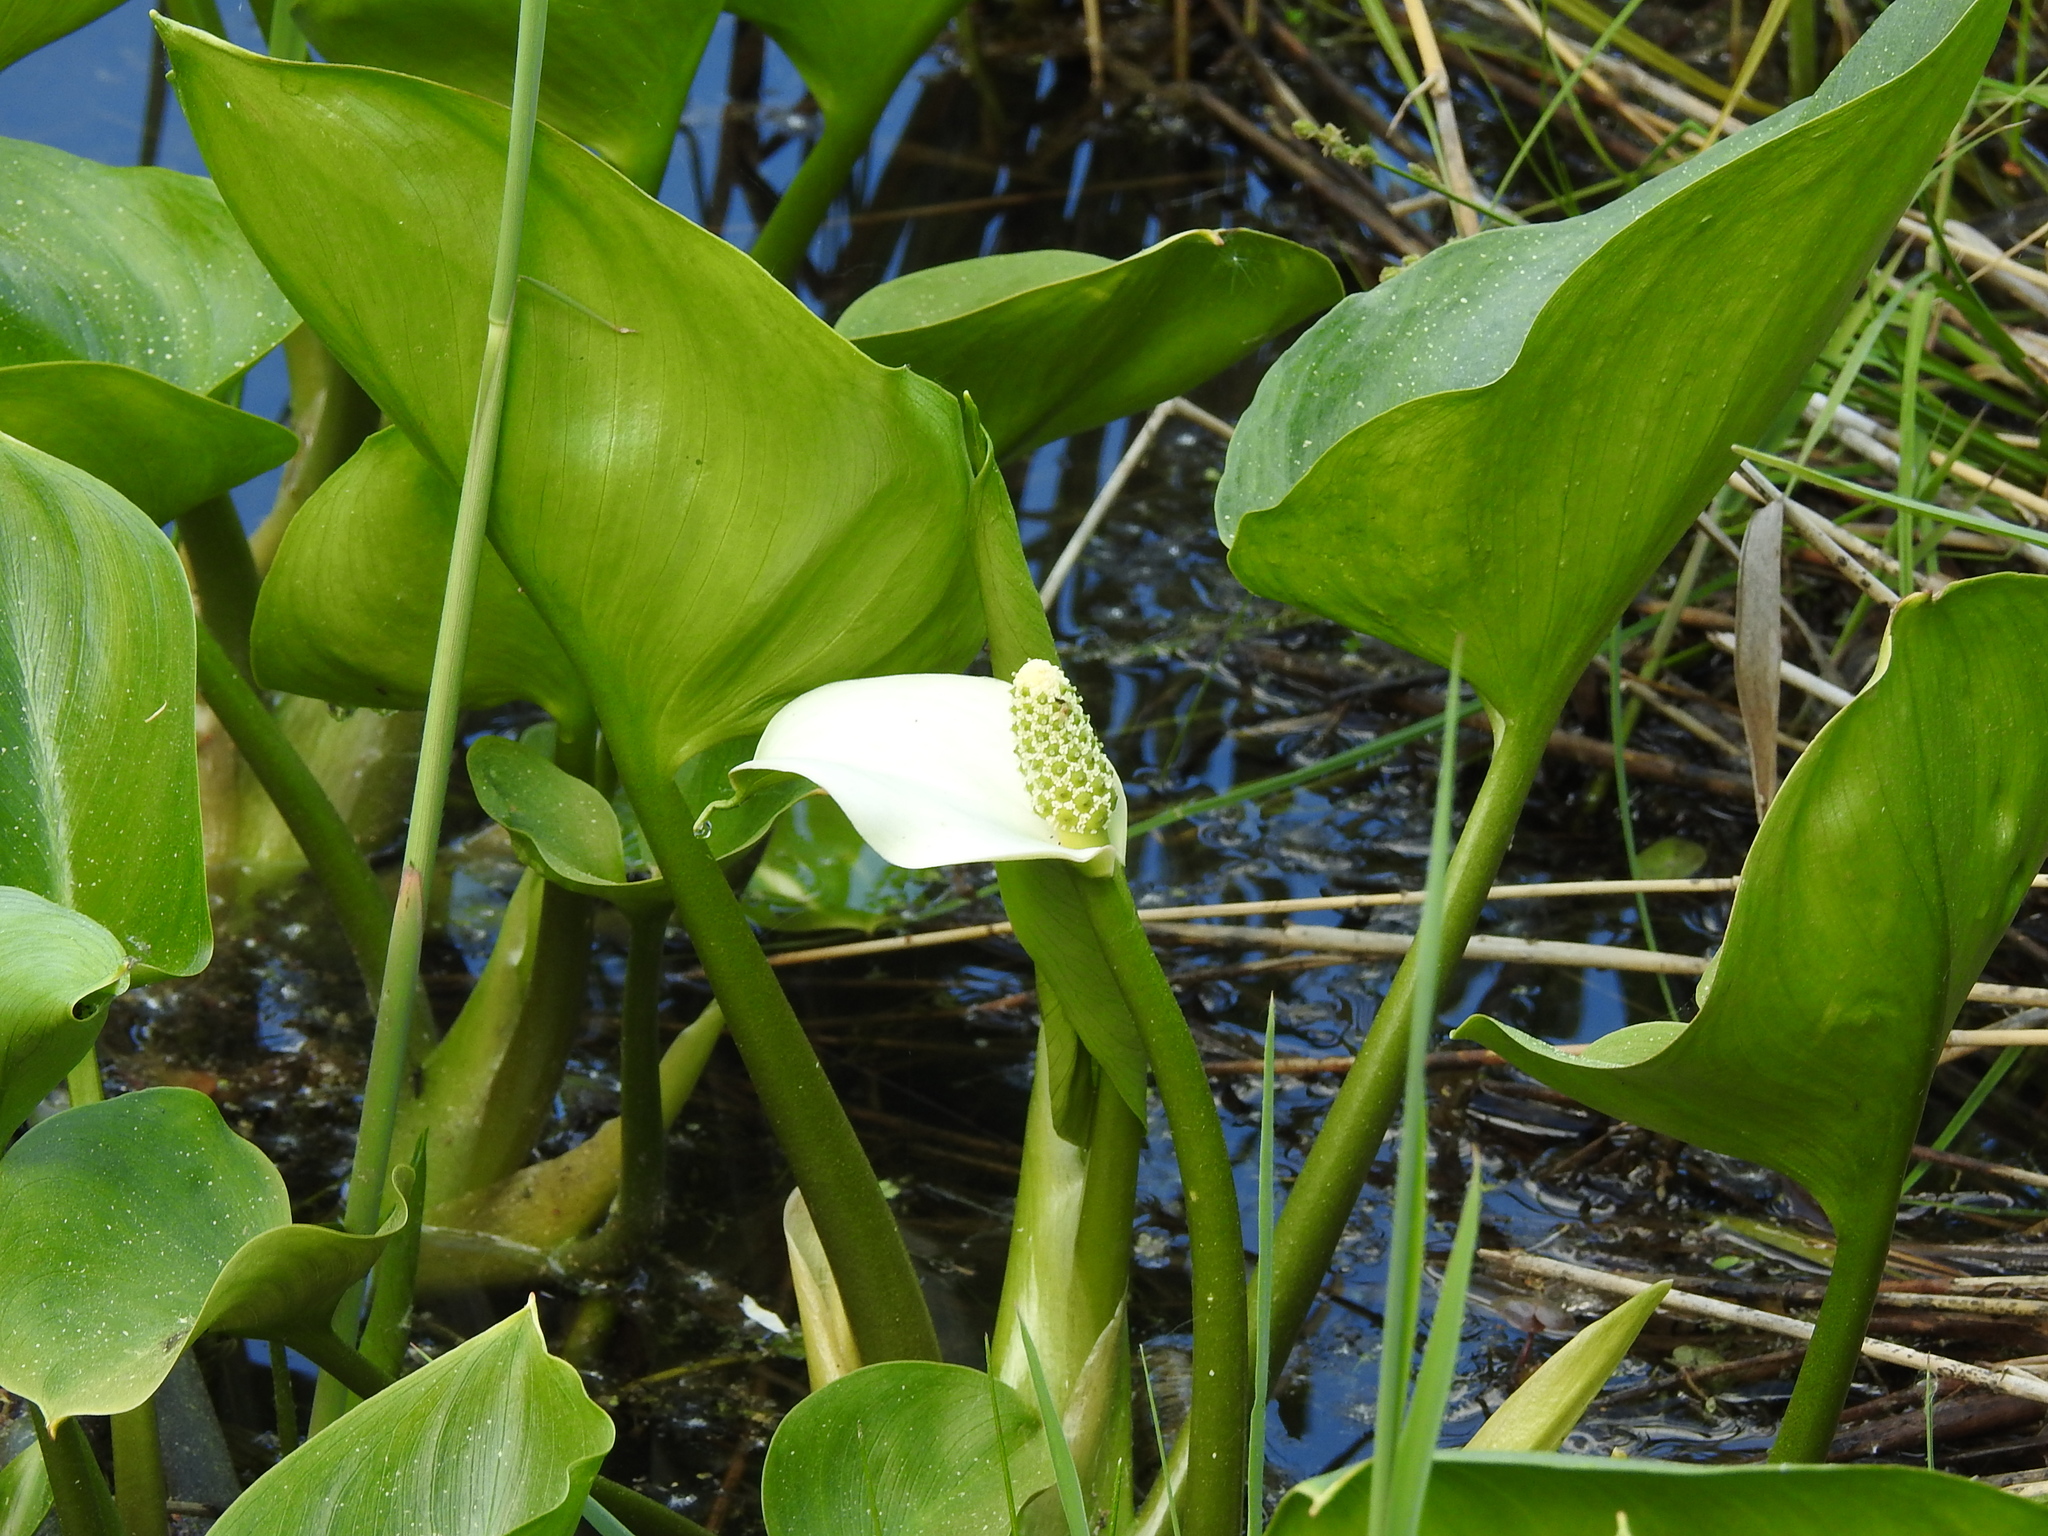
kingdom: Plantae
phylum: Tracheophyta
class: Liliopsida
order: Alismatales
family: Araceae
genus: Calla
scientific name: Calla palustris
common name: Bog arum
